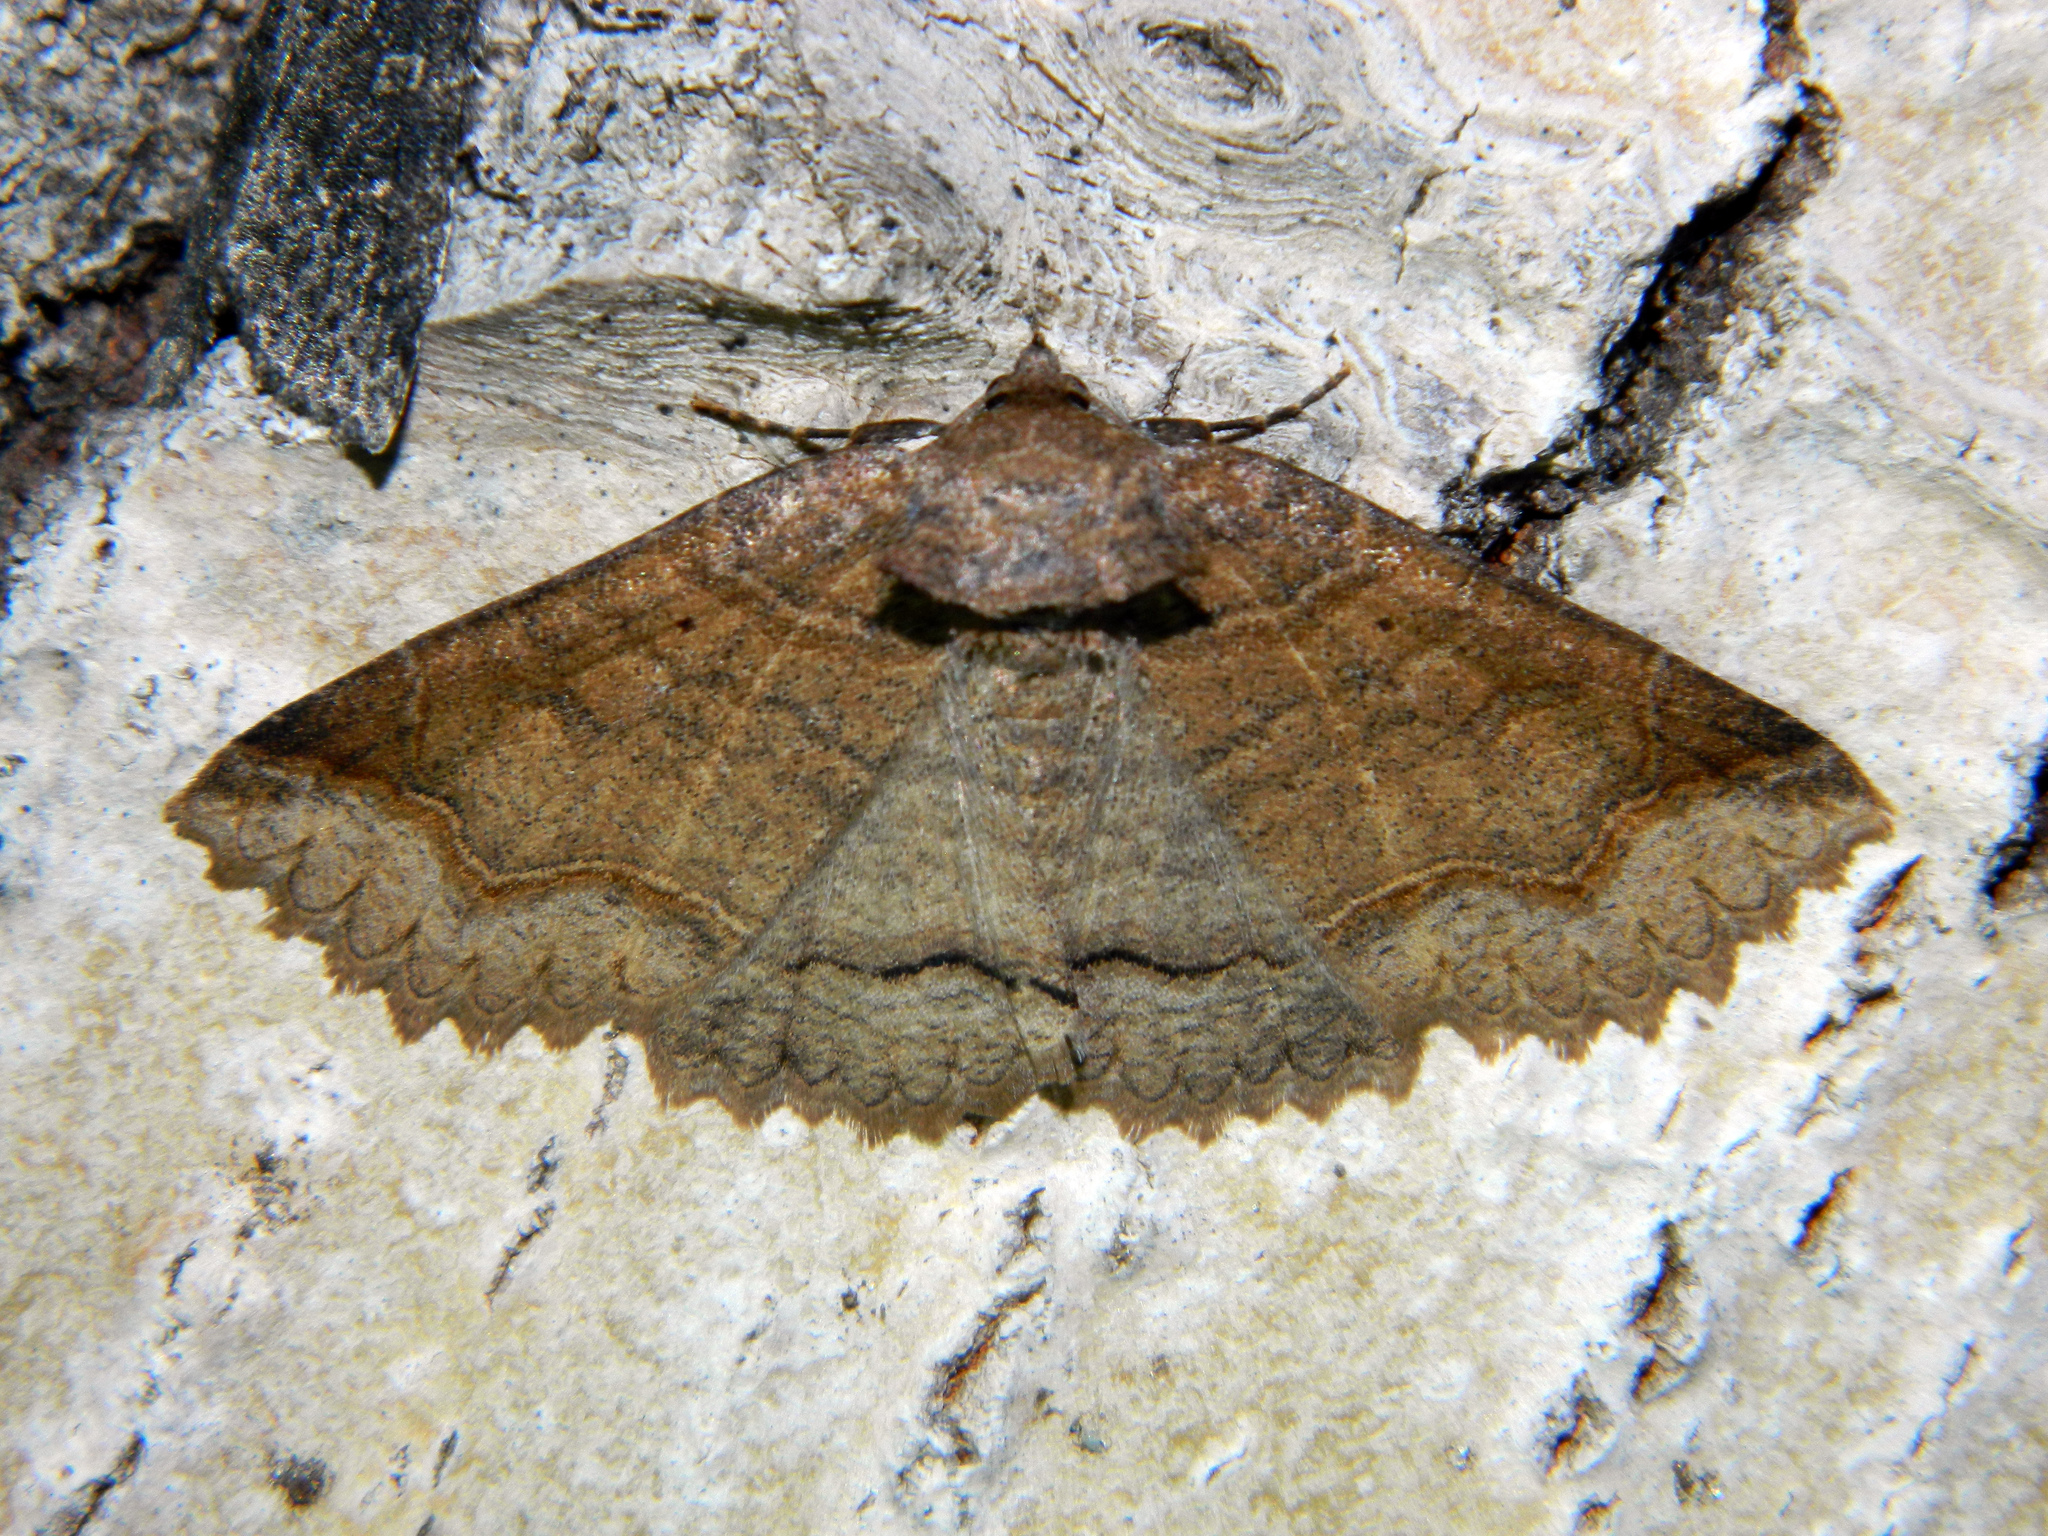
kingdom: Animalia
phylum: Arthropoda
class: Insecta
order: Lepidoptera
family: Erebidae
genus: Zale
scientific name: Zale unilineata
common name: One-lined zale moth
